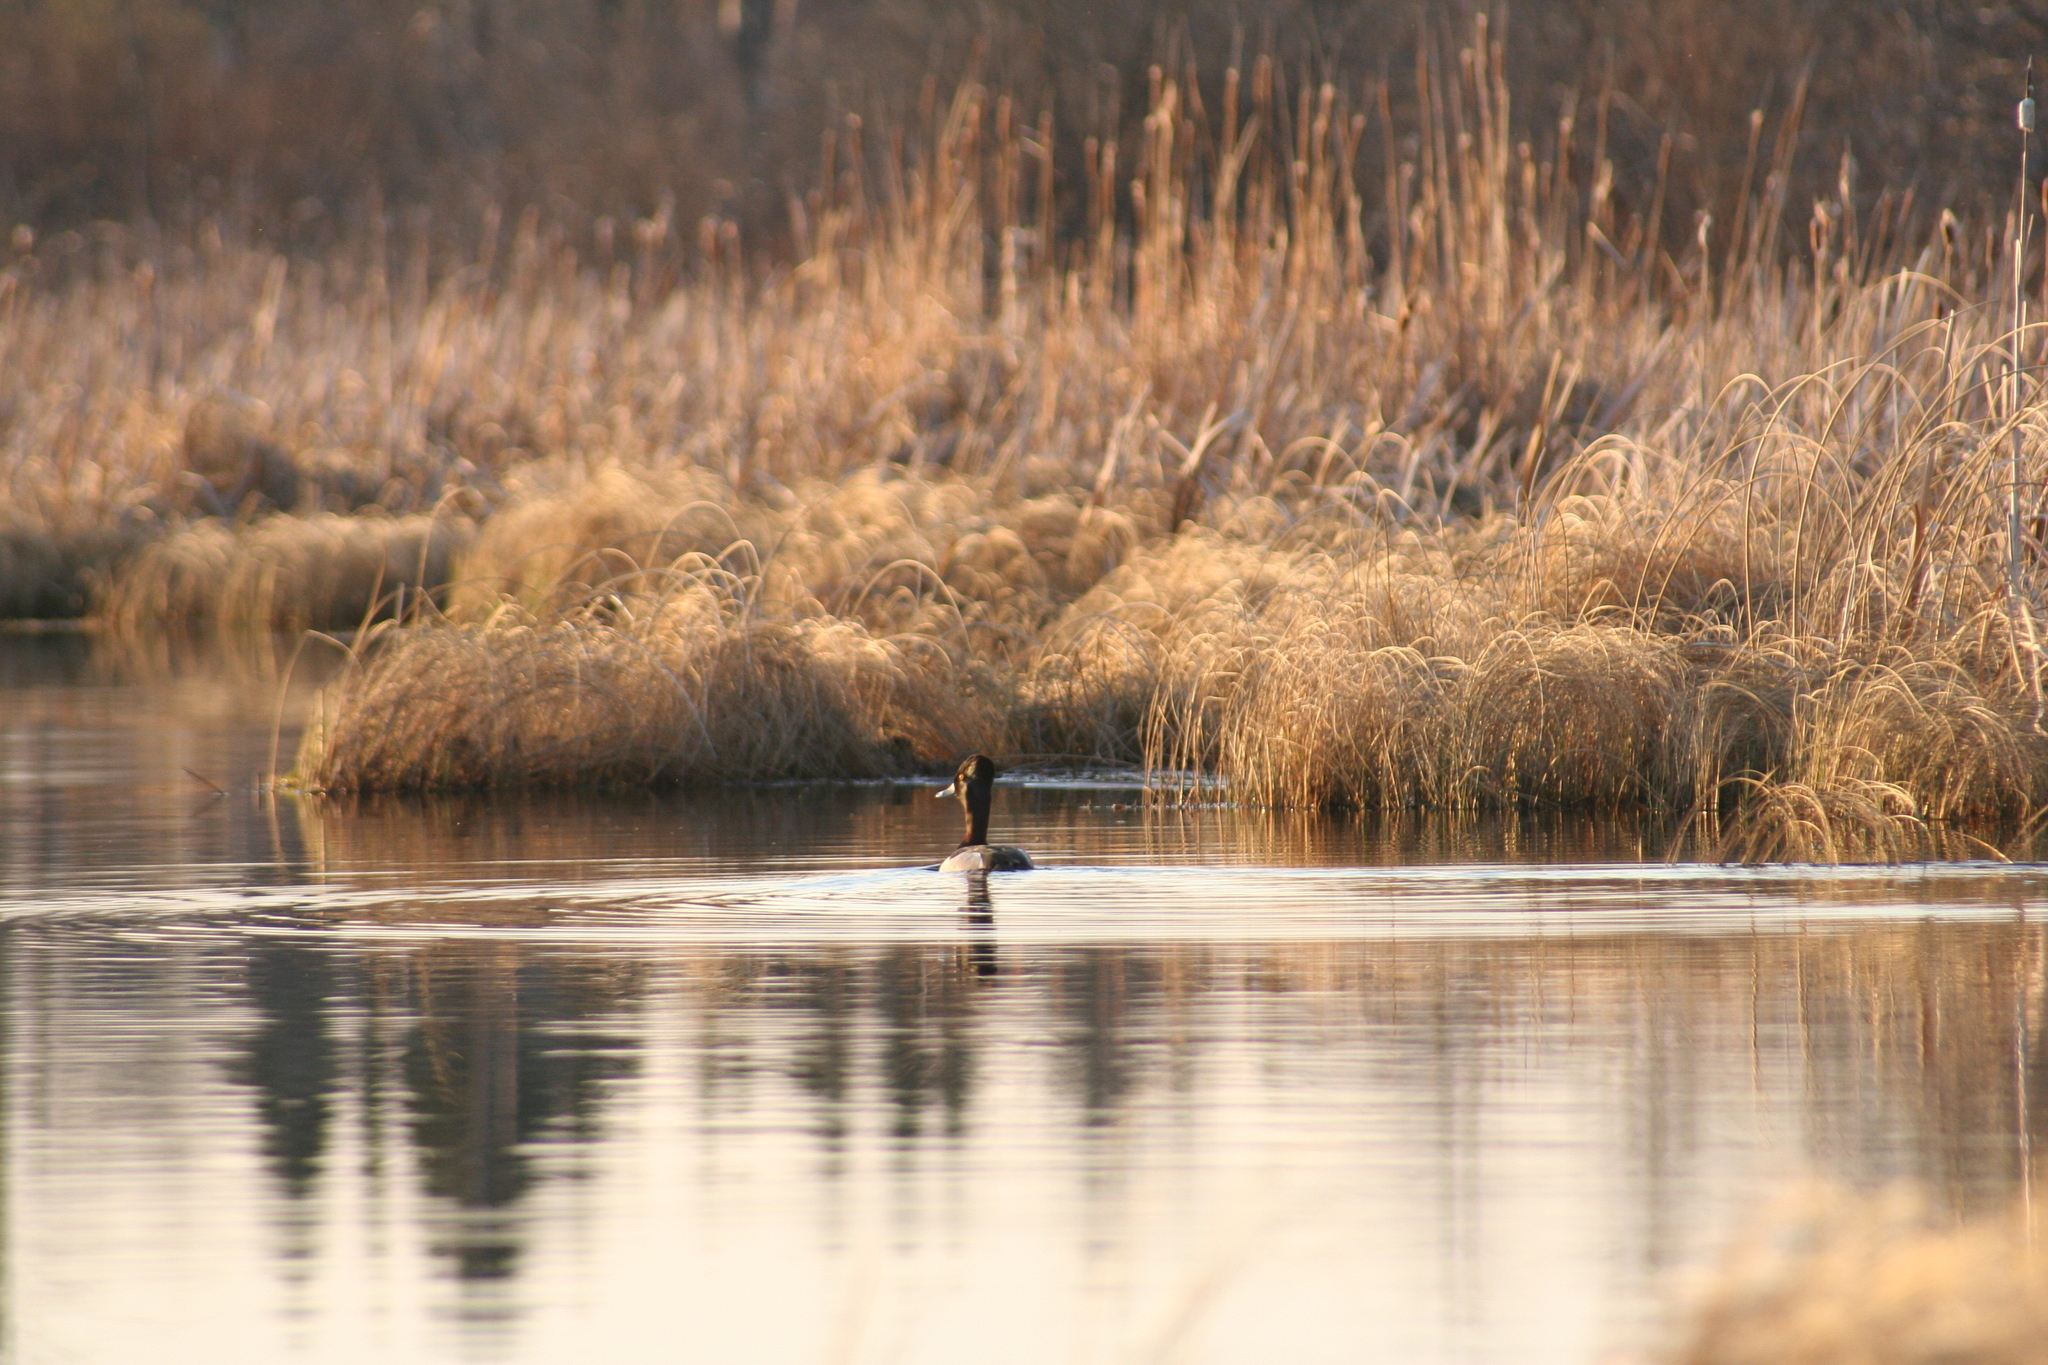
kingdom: Animalia
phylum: Chordata
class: Aves
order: Anseriformes
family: Anatidae
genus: Aythya
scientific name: Aythya collaris
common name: Ring-necked duck
